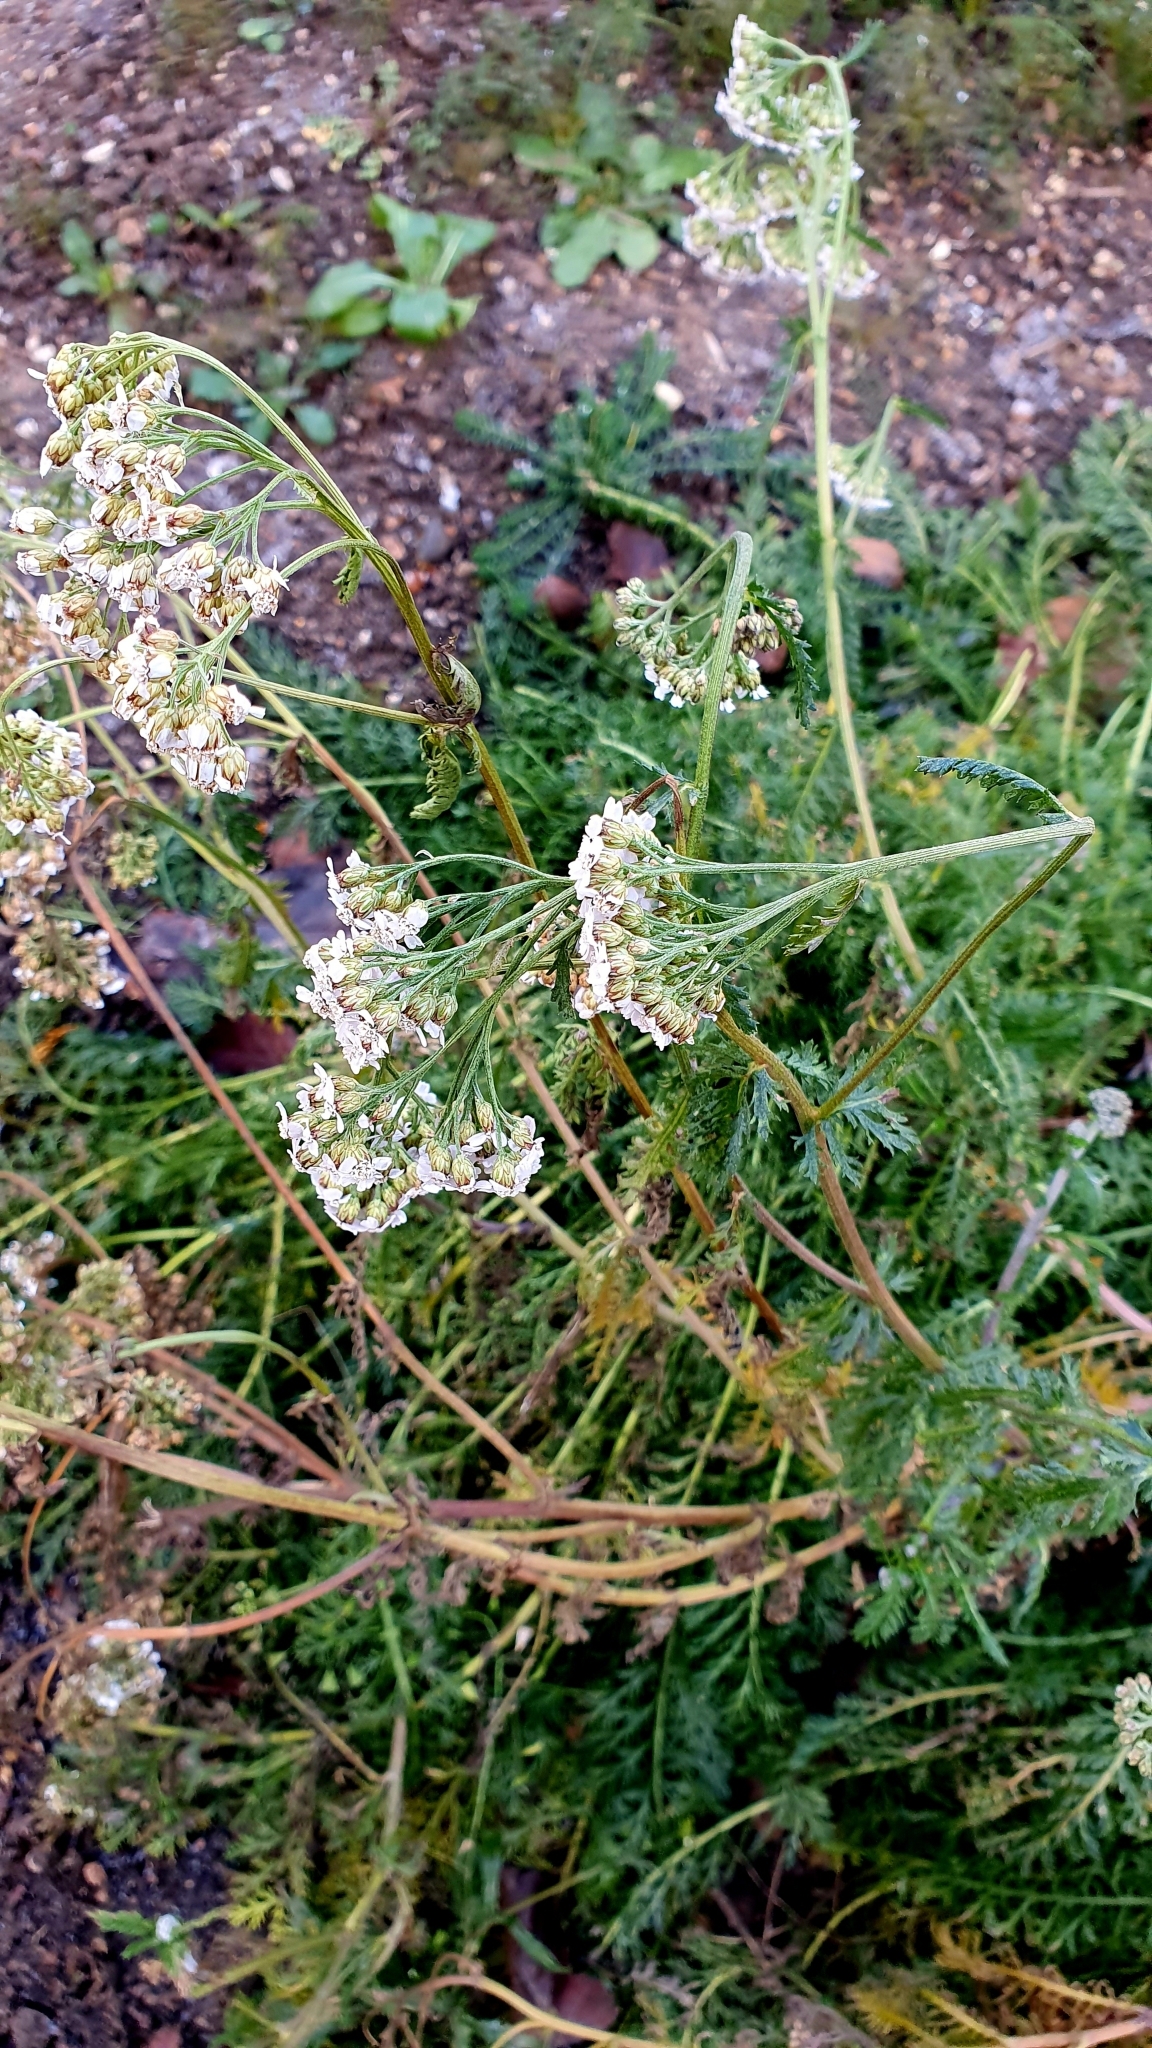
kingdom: Plantae
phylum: Tracheophyta
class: Magnoliopsida
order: Asterales
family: Asteraceae
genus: Achillea
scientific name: Achillea millefolium
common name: Yarrow
